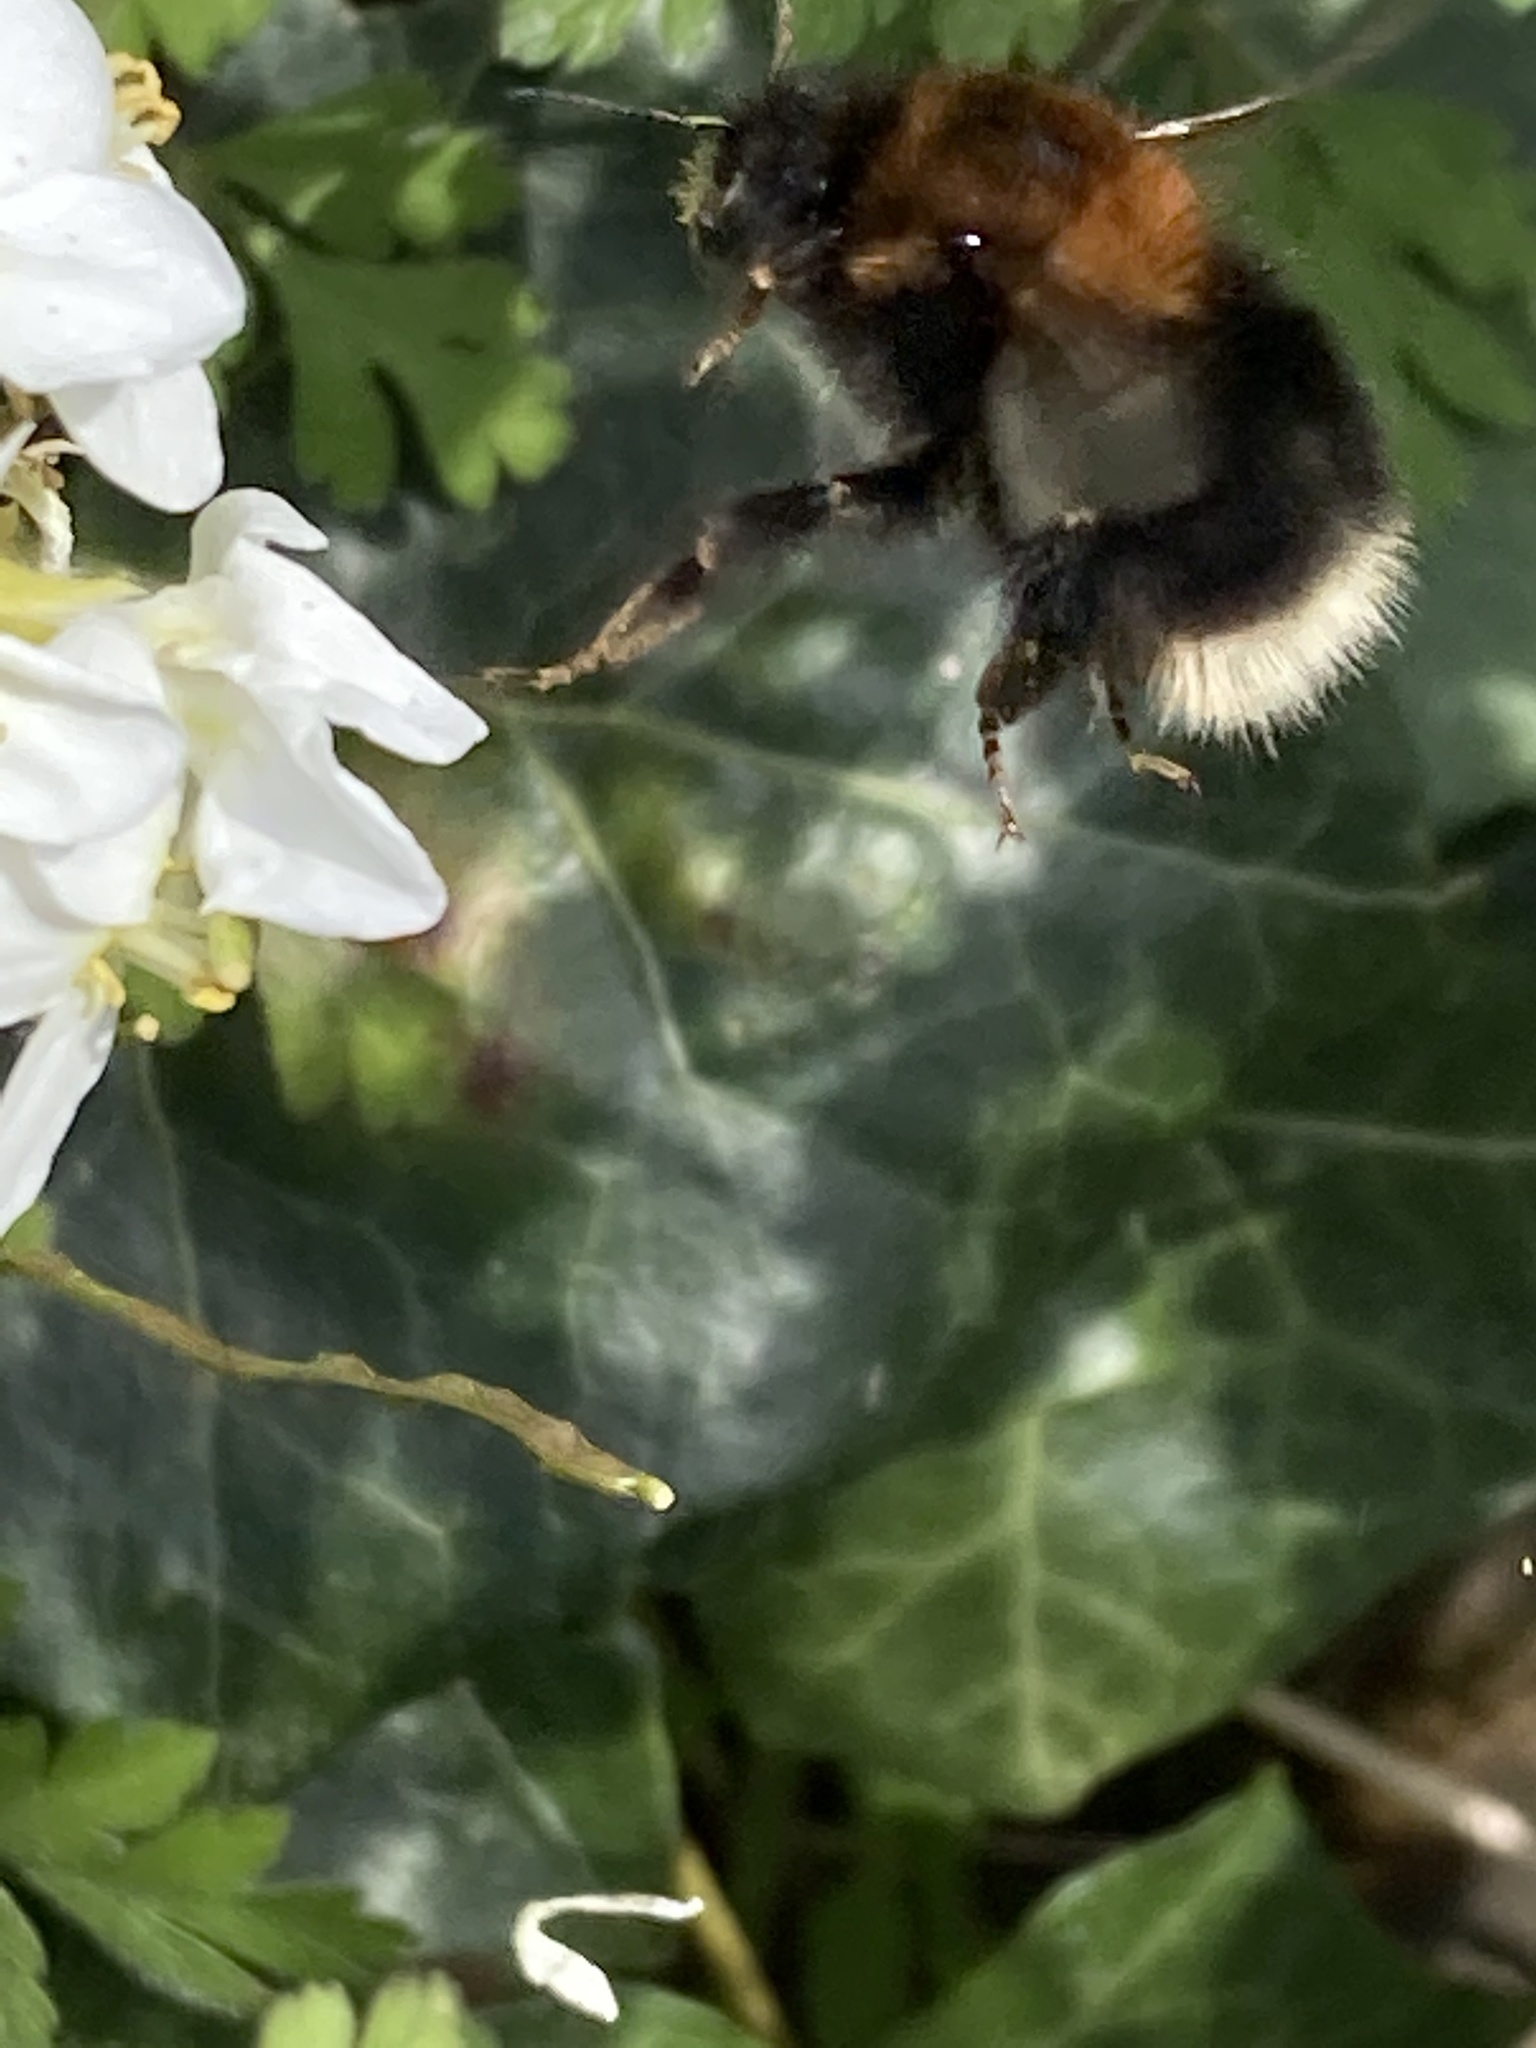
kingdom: Animalia
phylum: Arthropoda
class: Insecta
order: Hymenoptera
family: Apidae
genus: Bombus
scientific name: Bombus hypnorum
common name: New garden bumblebee
